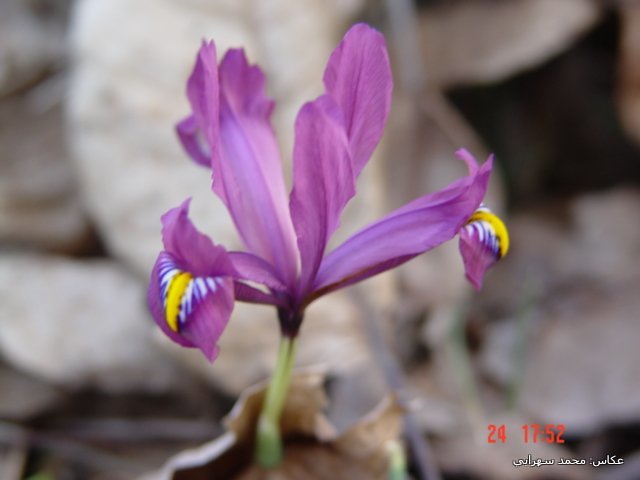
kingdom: Plantae
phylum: Tracheophyta
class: Liliopsida
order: Asparagales
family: Iridaceae
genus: Iris
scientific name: Iris reticulata
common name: Netted iris
